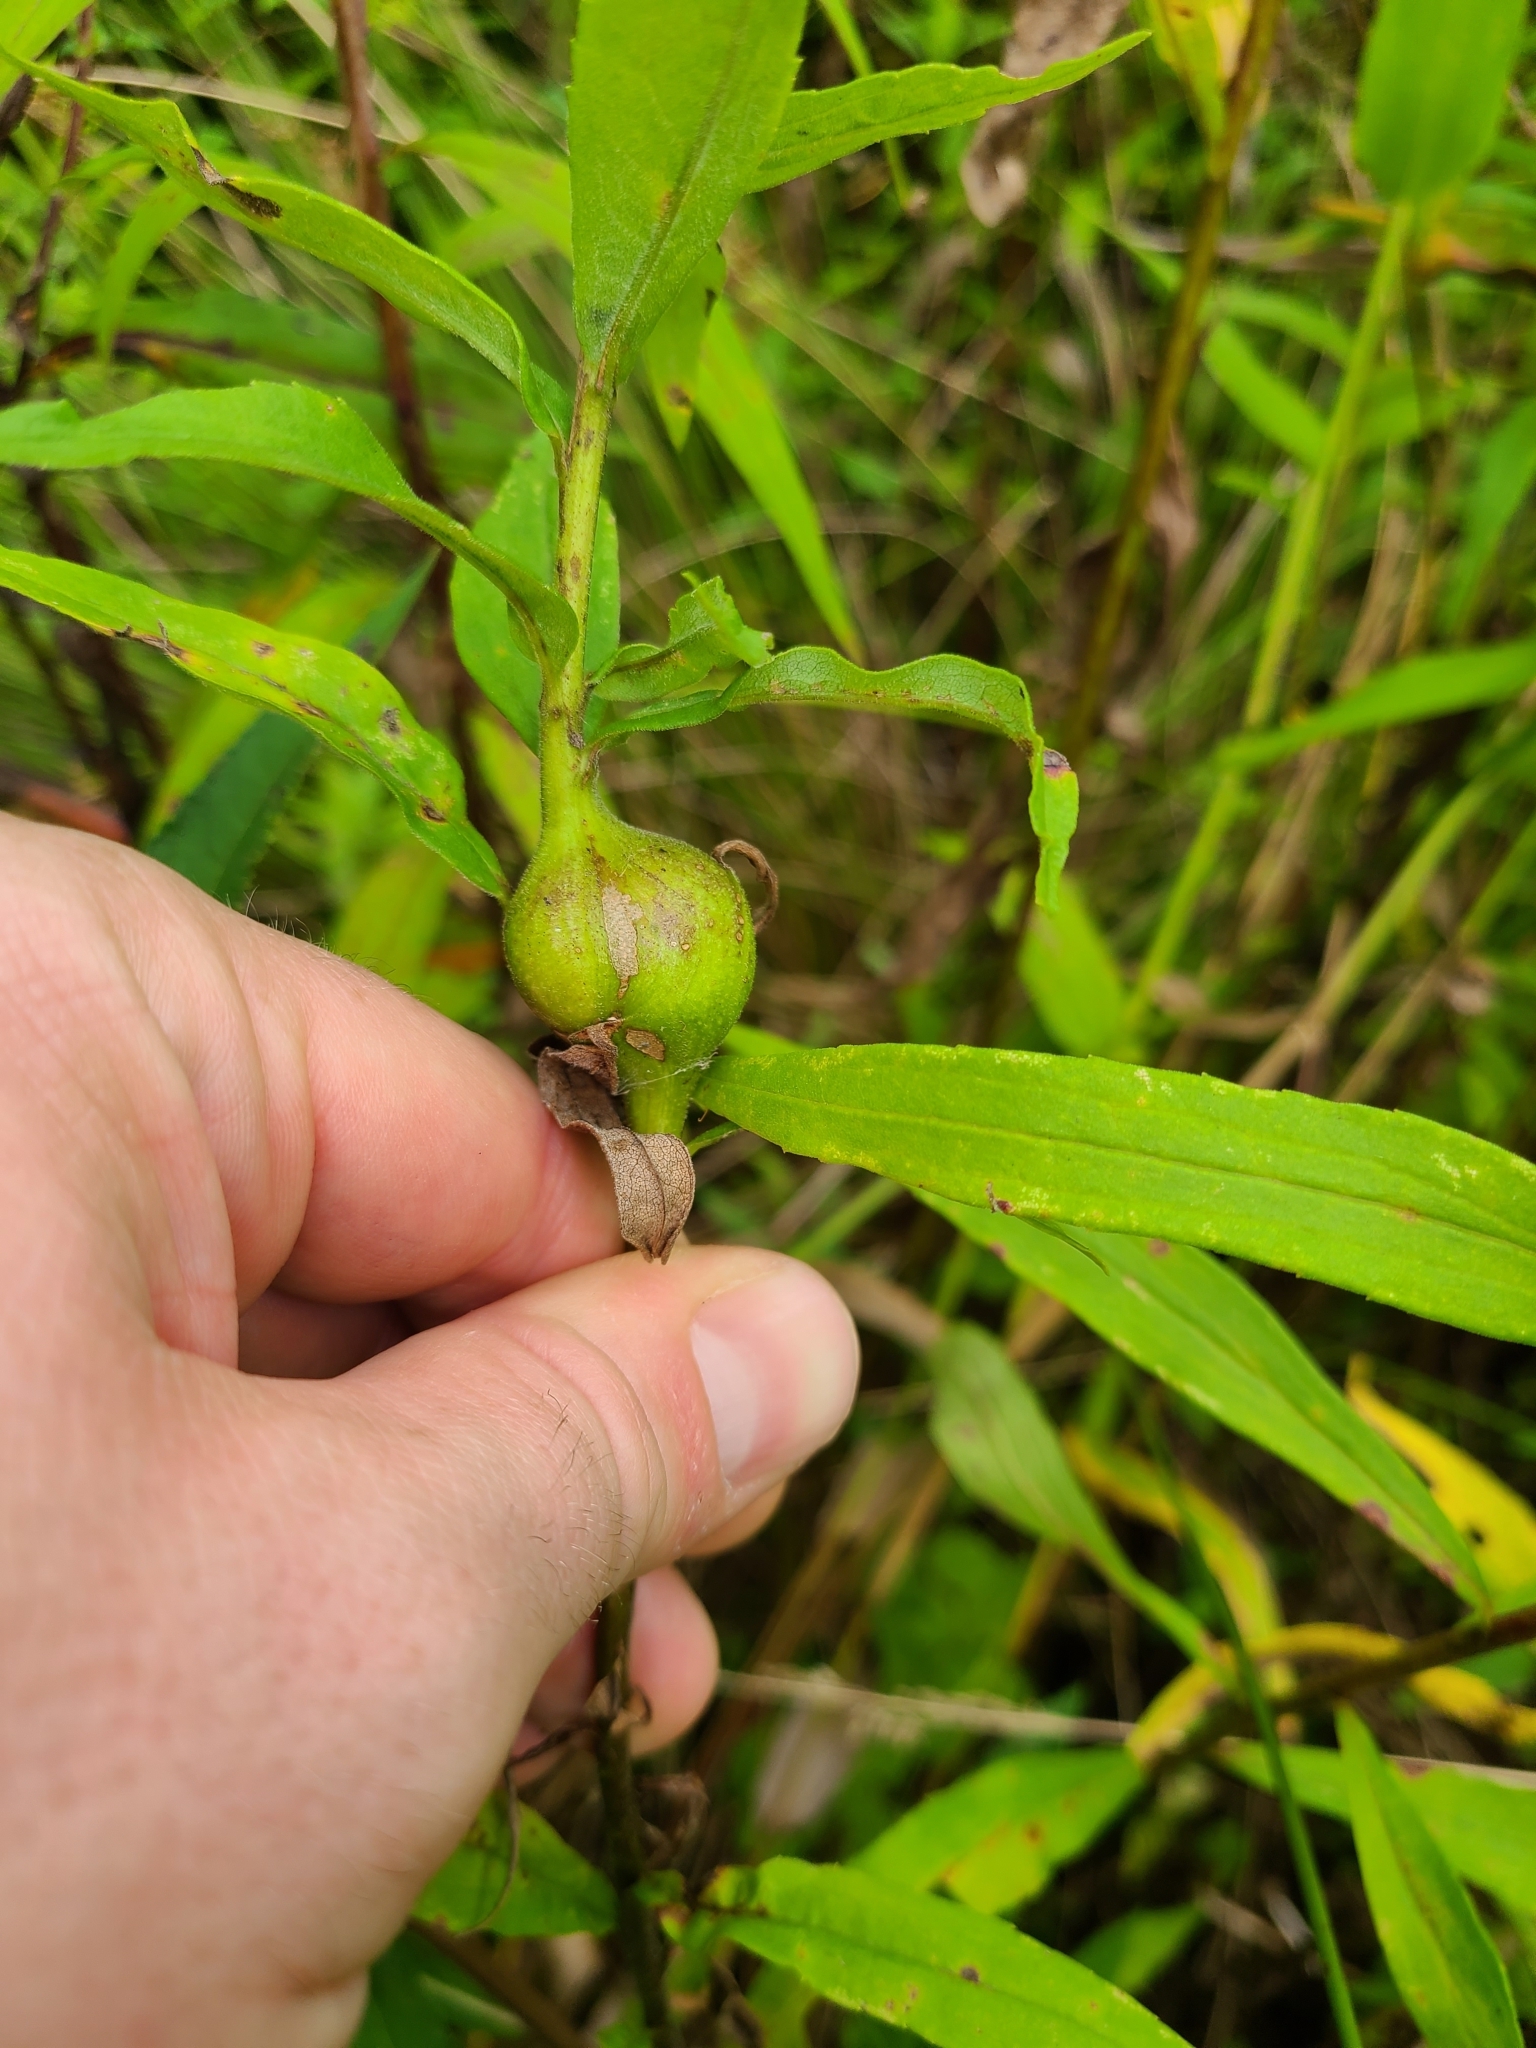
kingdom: Animalia
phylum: Arthropoda
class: Insecta
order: Diptera
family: Tephritidae
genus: Eurosta
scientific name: Eurosta solidaginis
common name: Goldenrod gall fly
